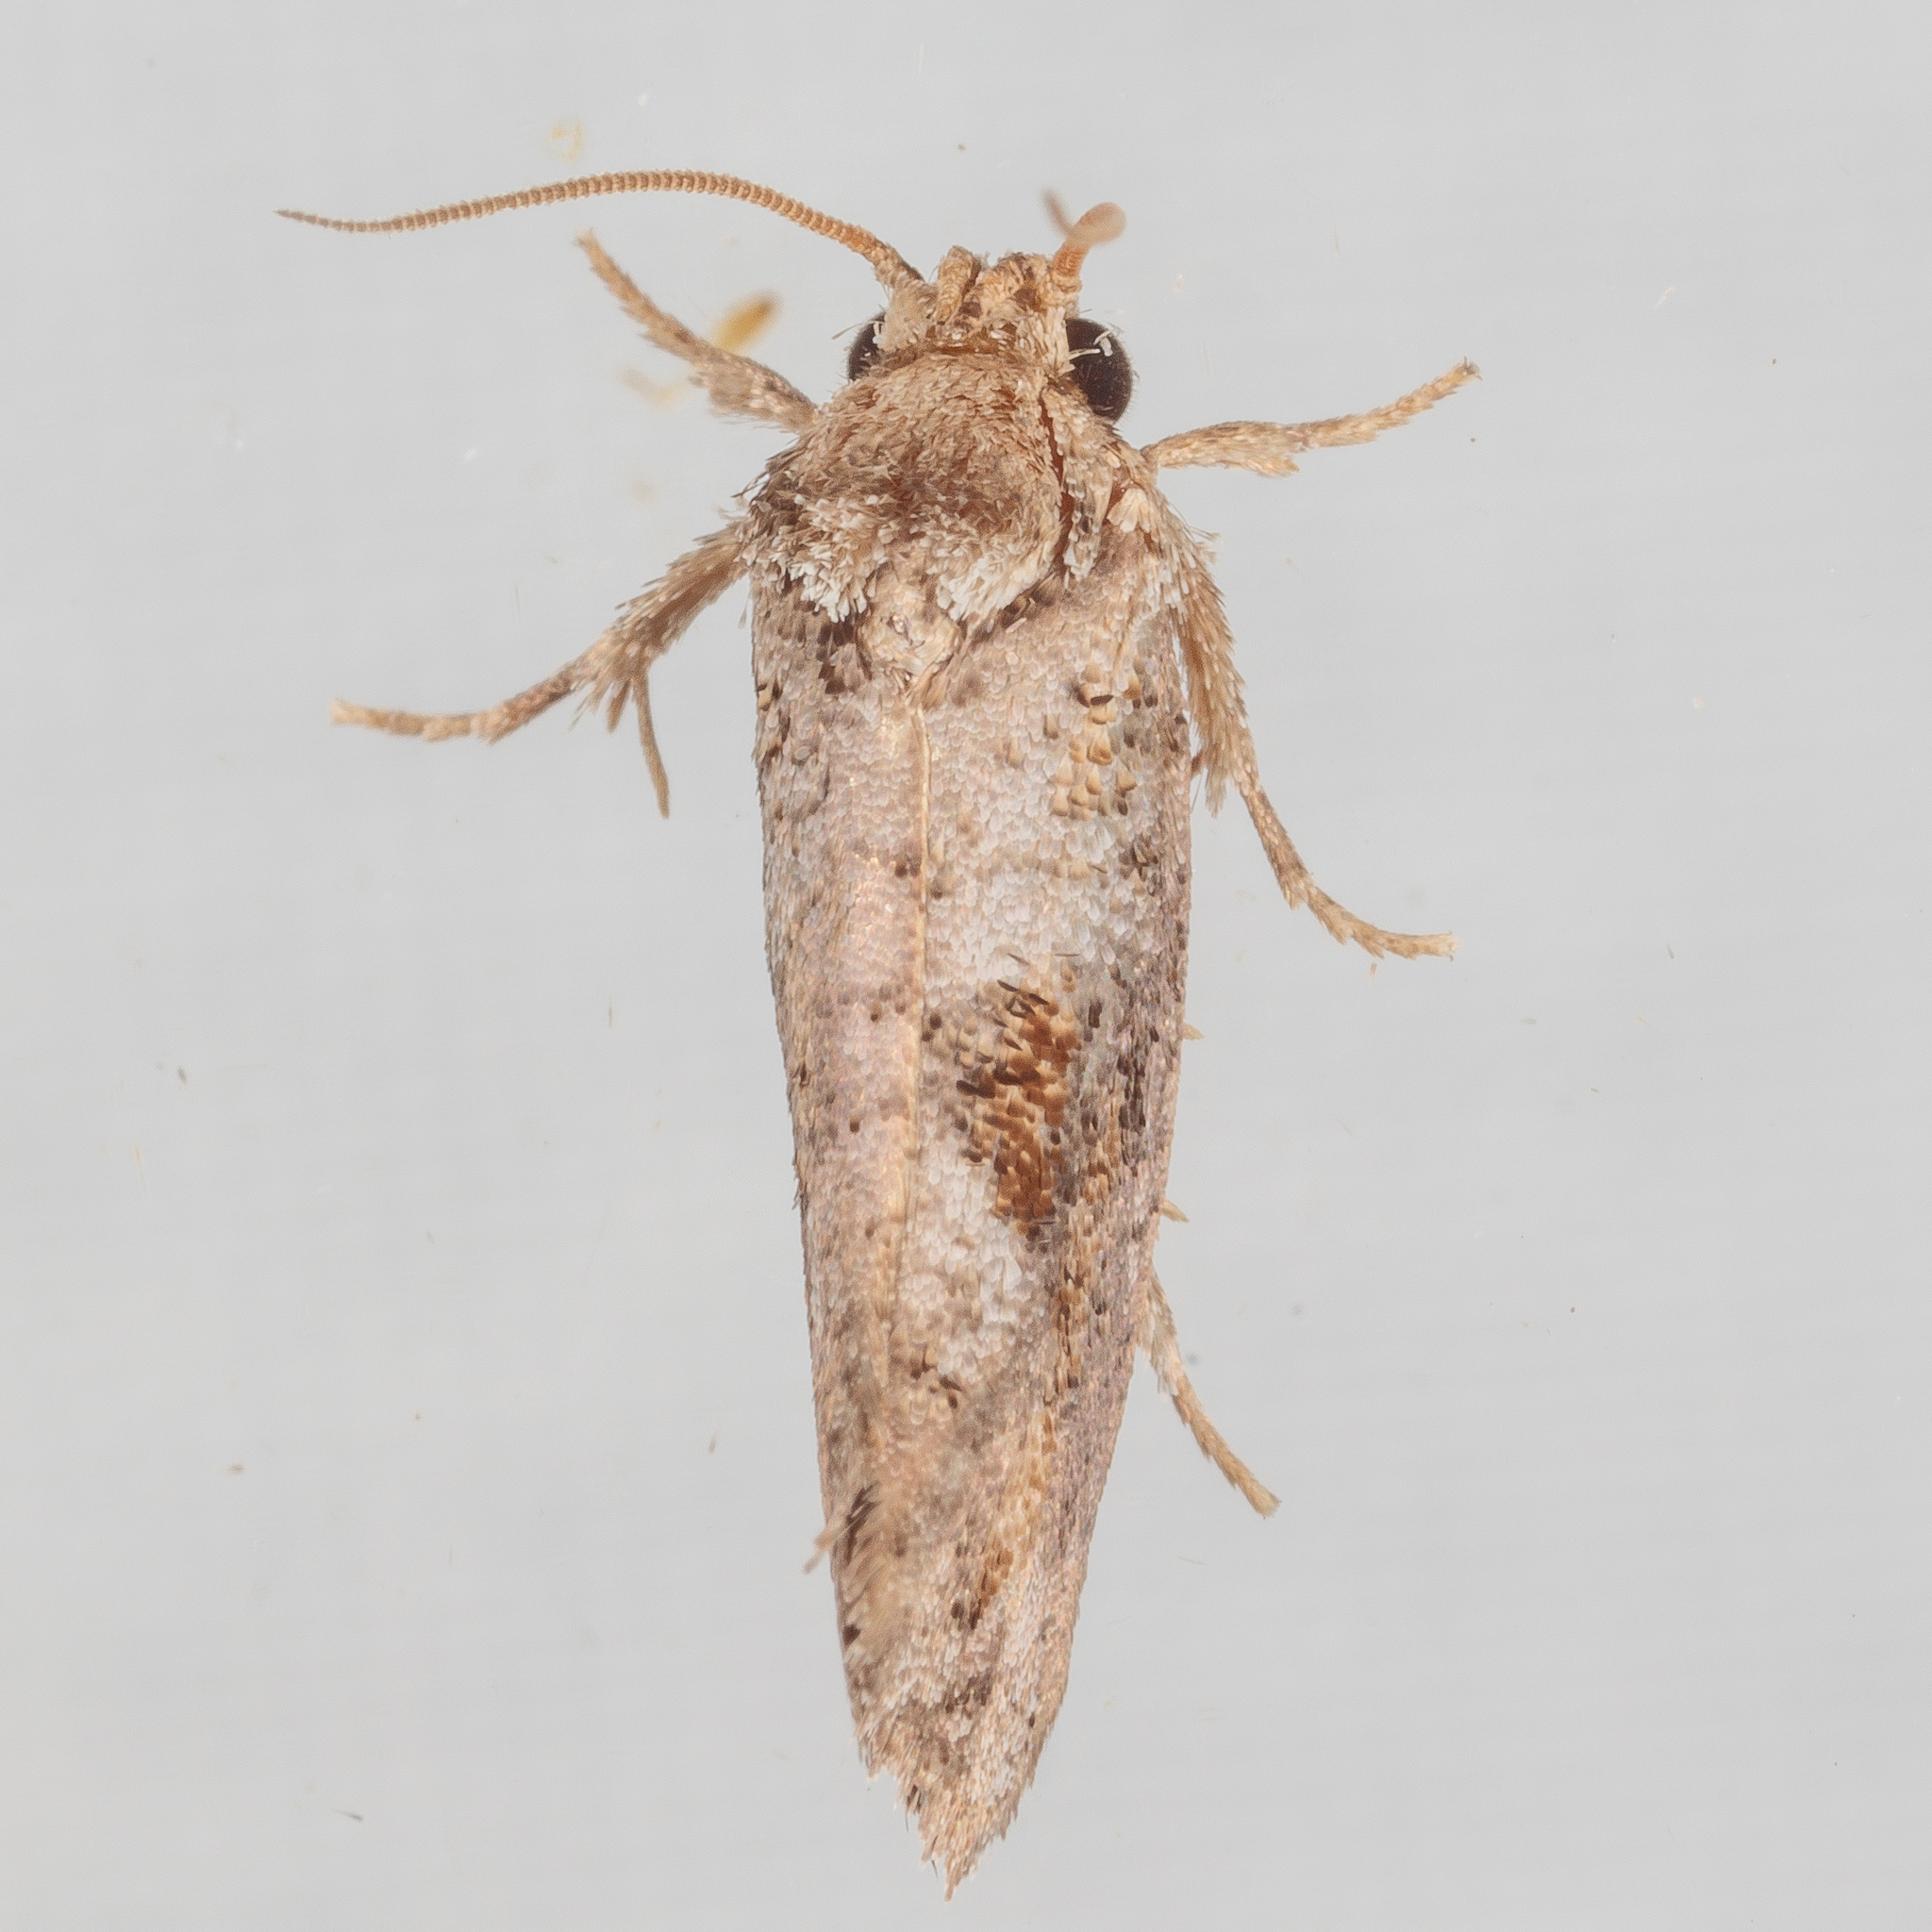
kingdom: Animalia
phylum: Arthropoda
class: Insecta
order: Lepidoptera
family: Tineidae
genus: Acrolophus
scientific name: Acrolophus piger
